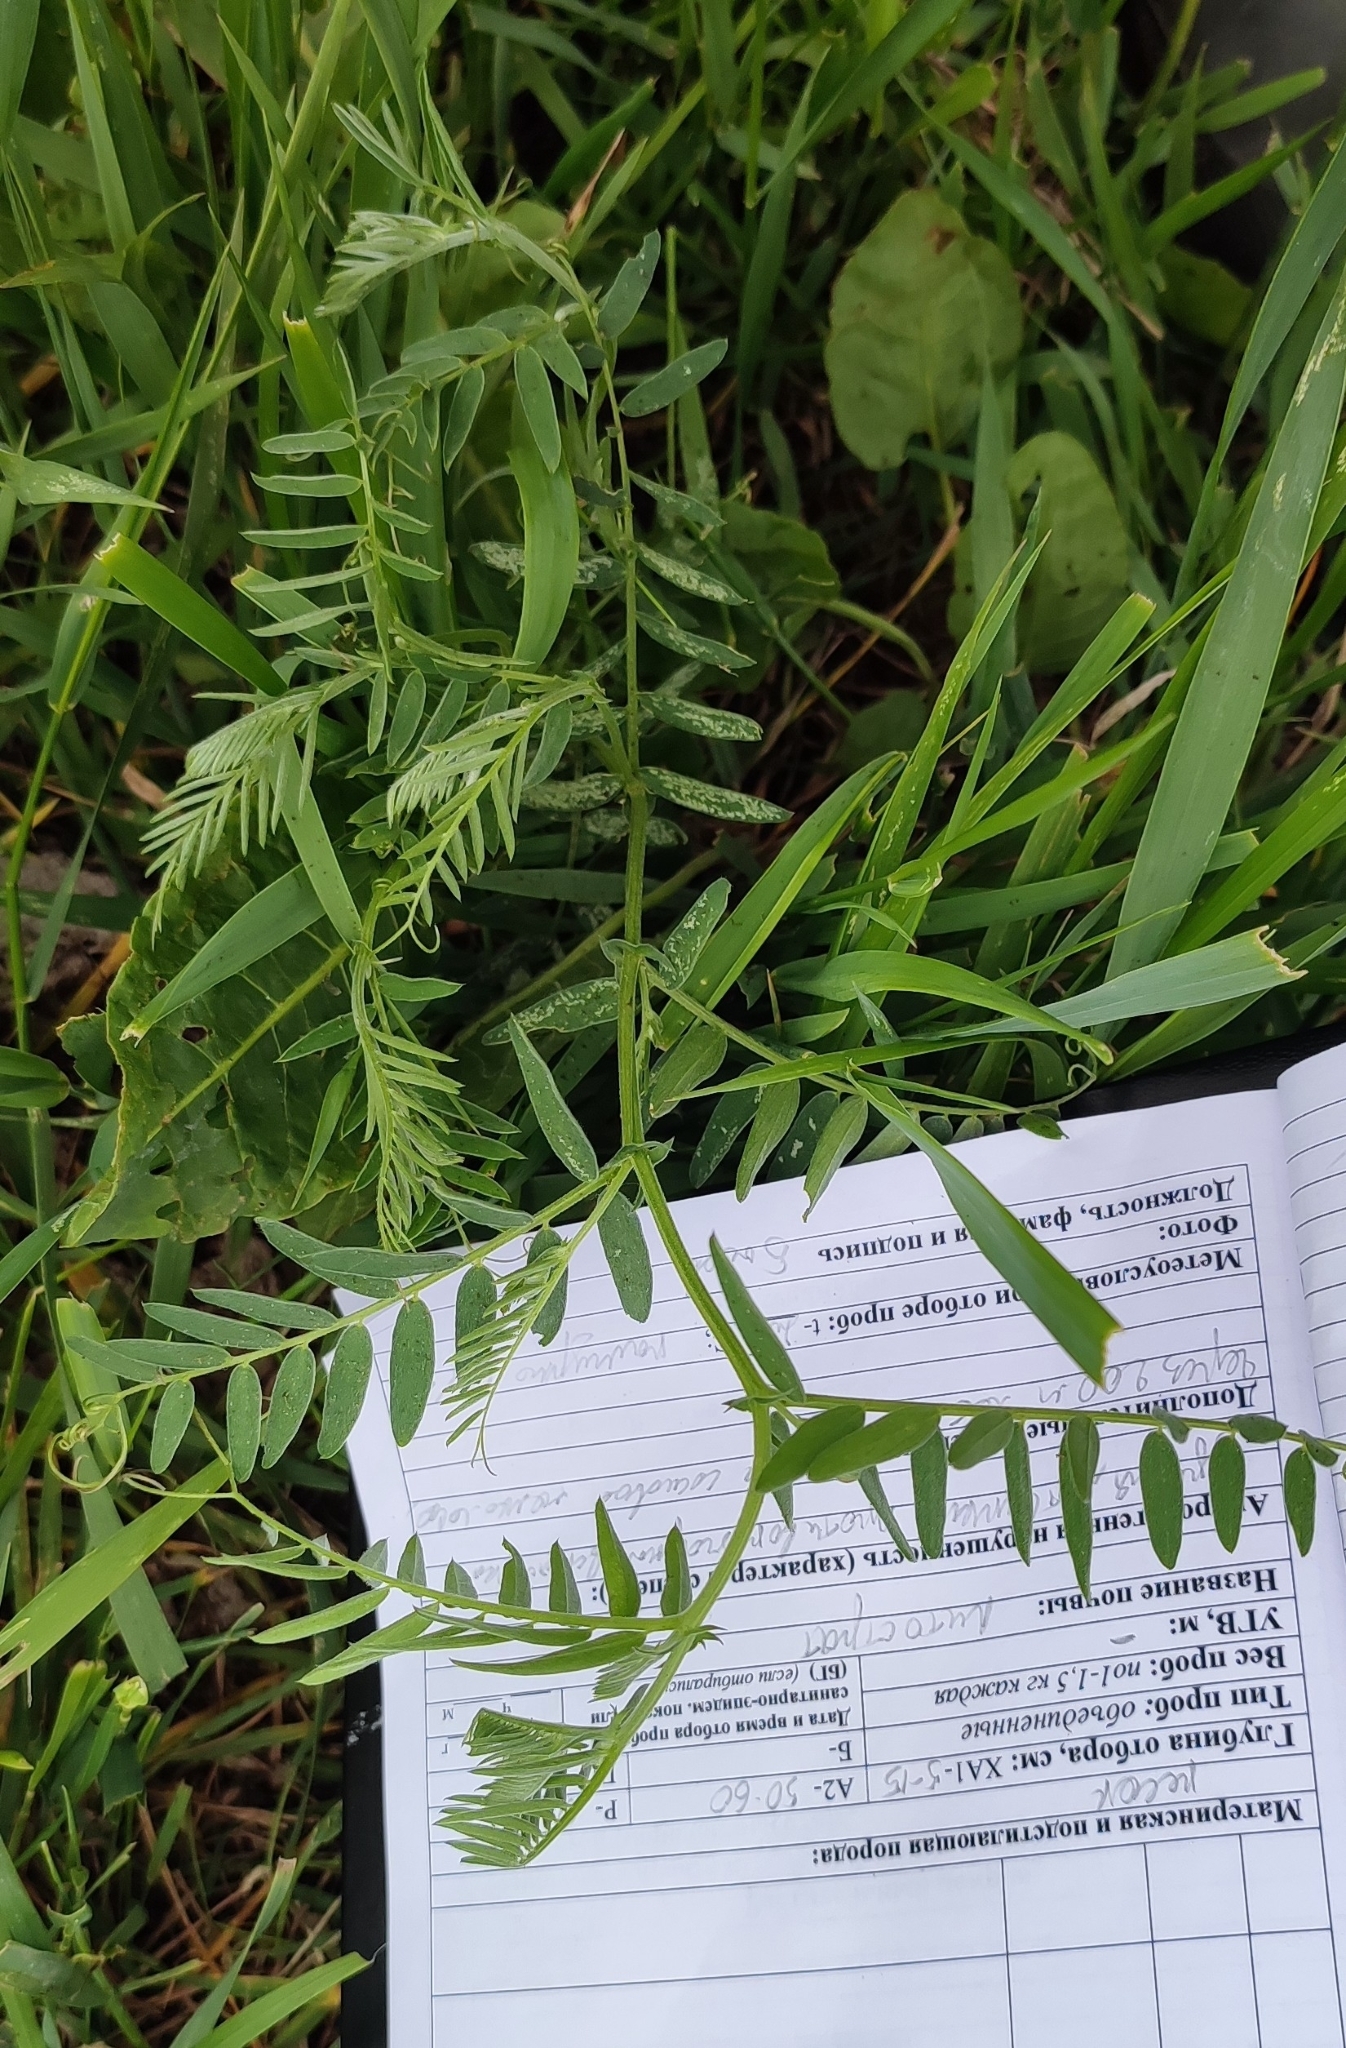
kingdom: Plantae
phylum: Tracheophyta
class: Magnoliopsida
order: Fabales
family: Fabaceae
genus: Vicia
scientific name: Vicia cracca
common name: Bird vetch
